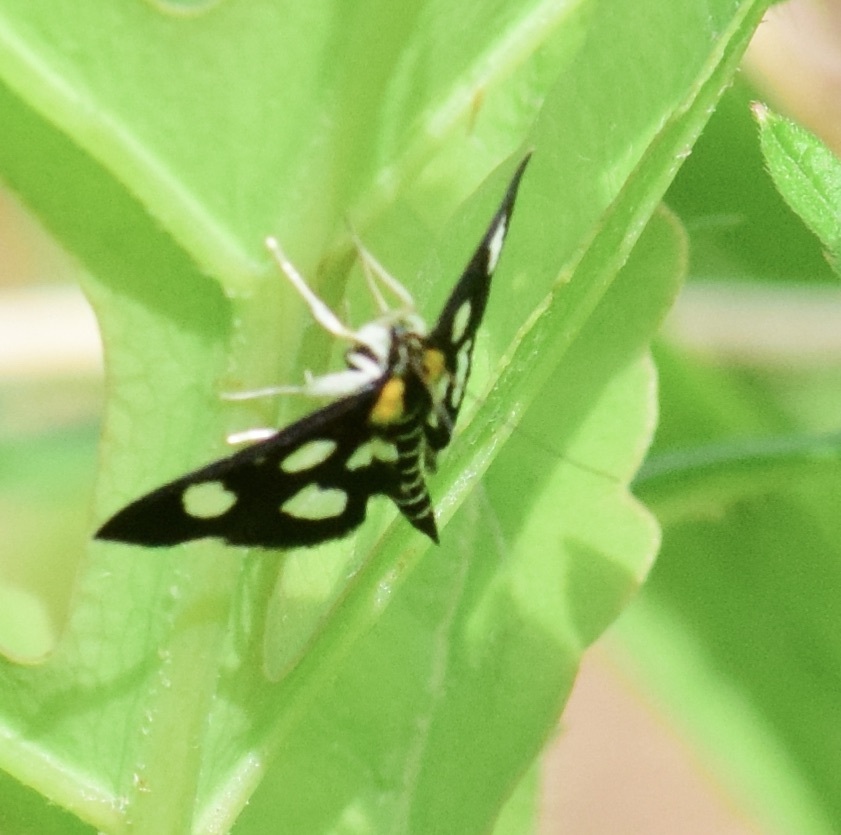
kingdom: Animalia
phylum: Arthropoda
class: Insecta
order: Lepidoptera
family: Crambidae
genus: Anania
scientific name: Anania funebris
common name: White-spotted sable moth
